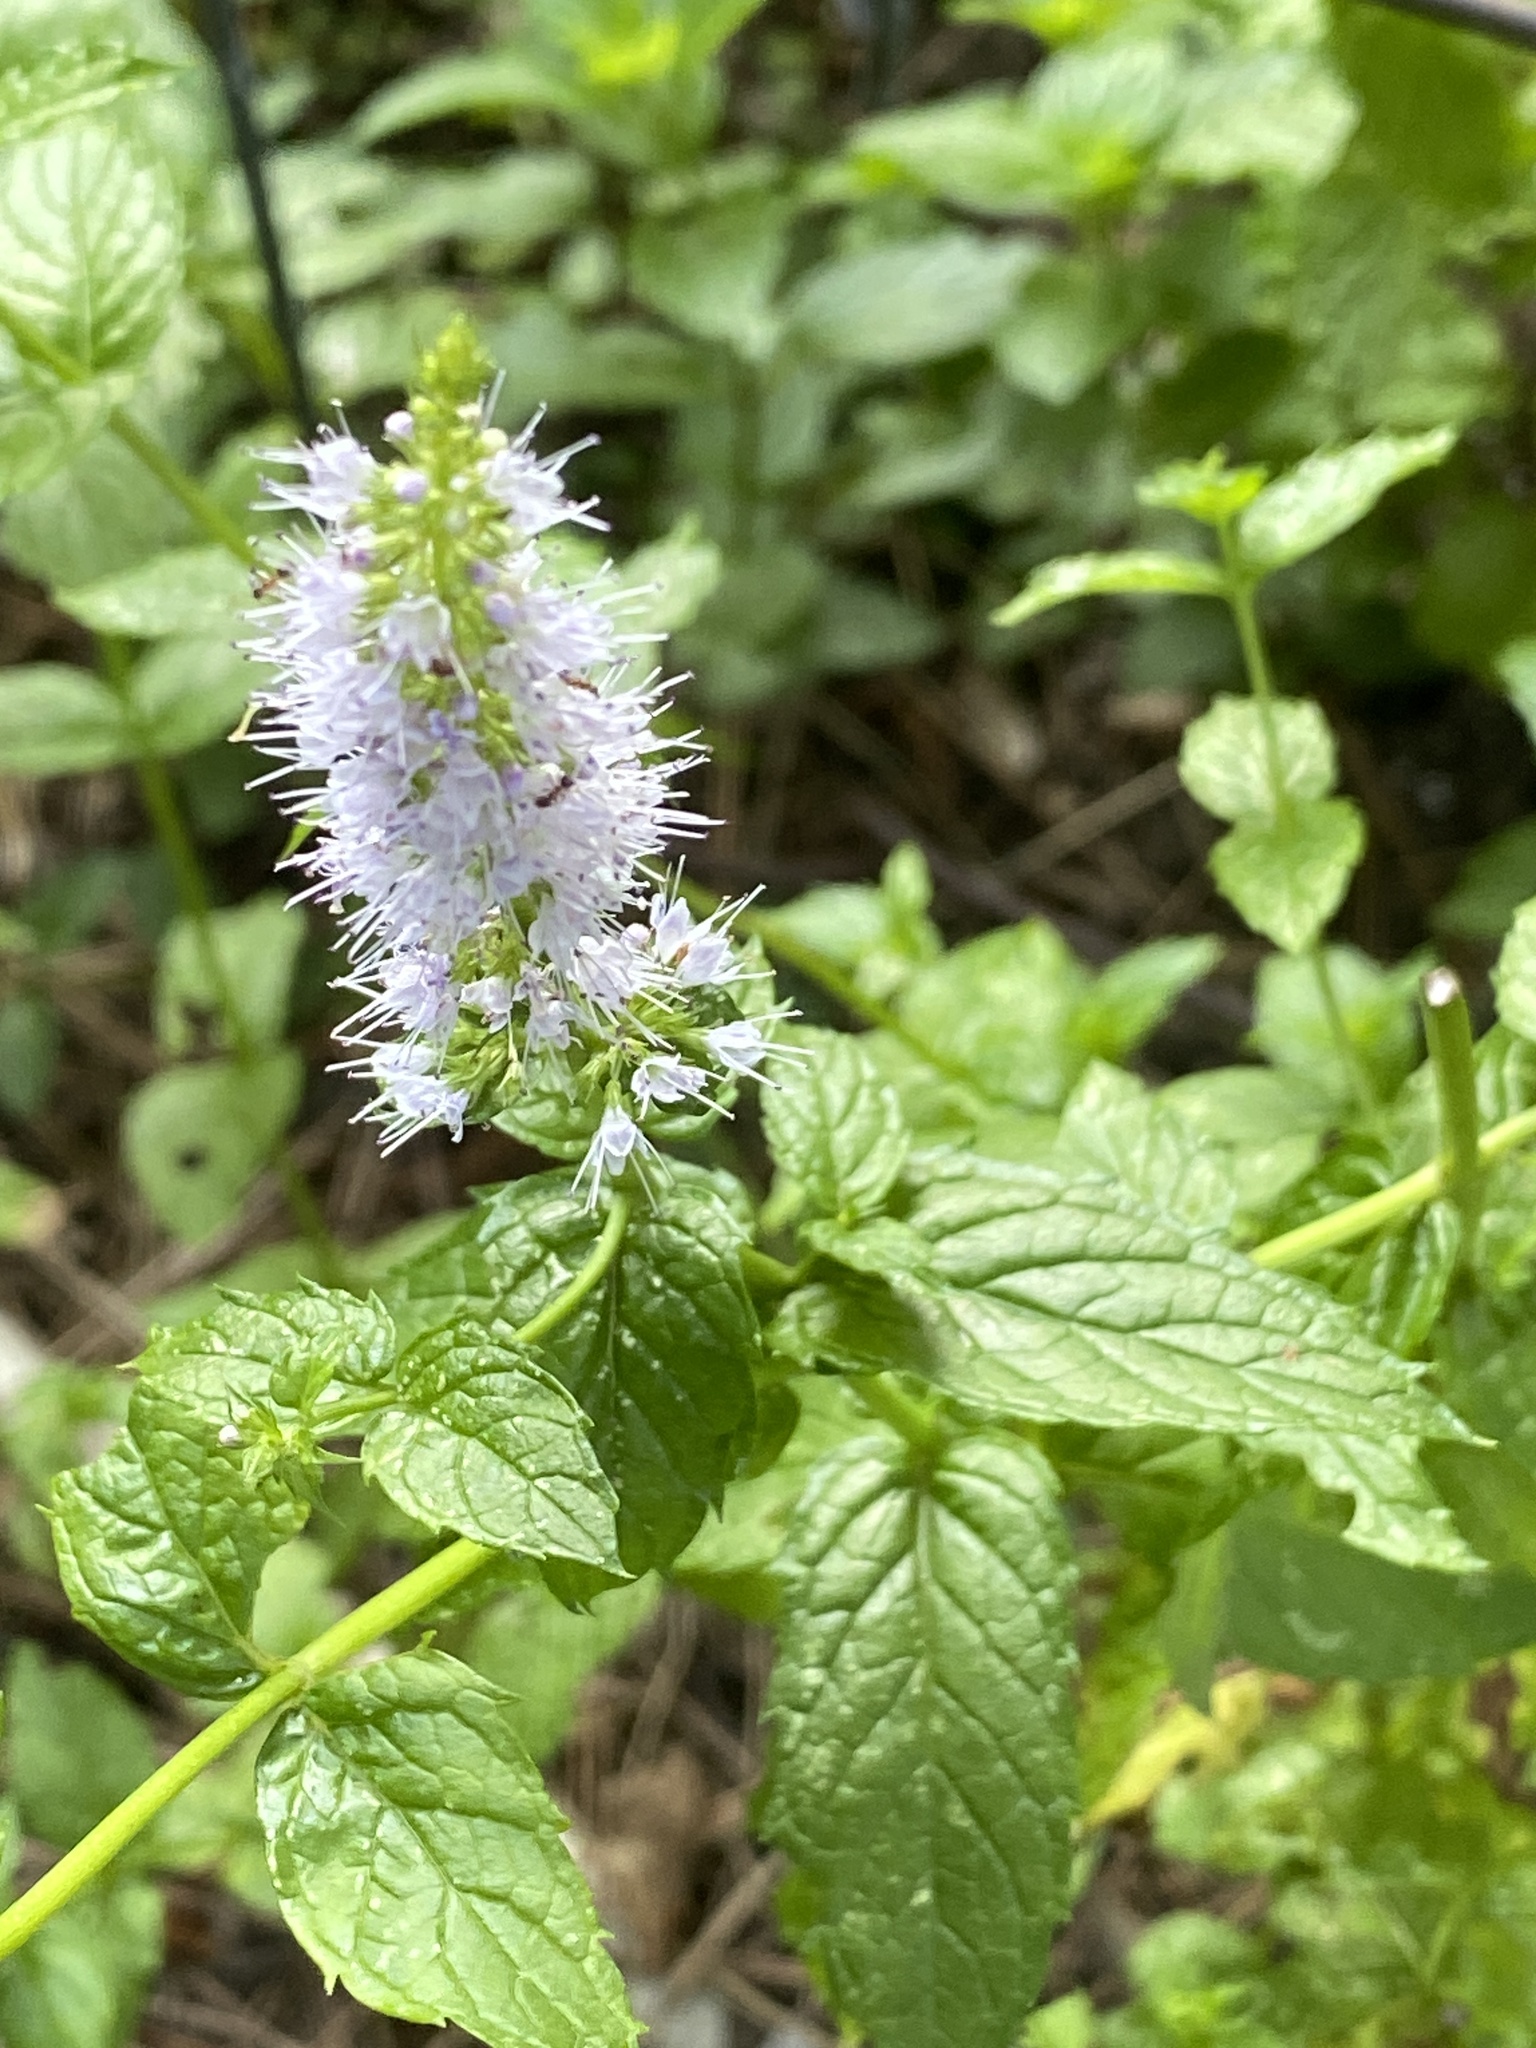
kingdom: Plantae
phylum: Tracheophyta
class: Magnoliopsida
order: Lamiales
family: Lamiaceae
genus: Mentha
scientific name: Mentha spicata
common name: Spearmint
